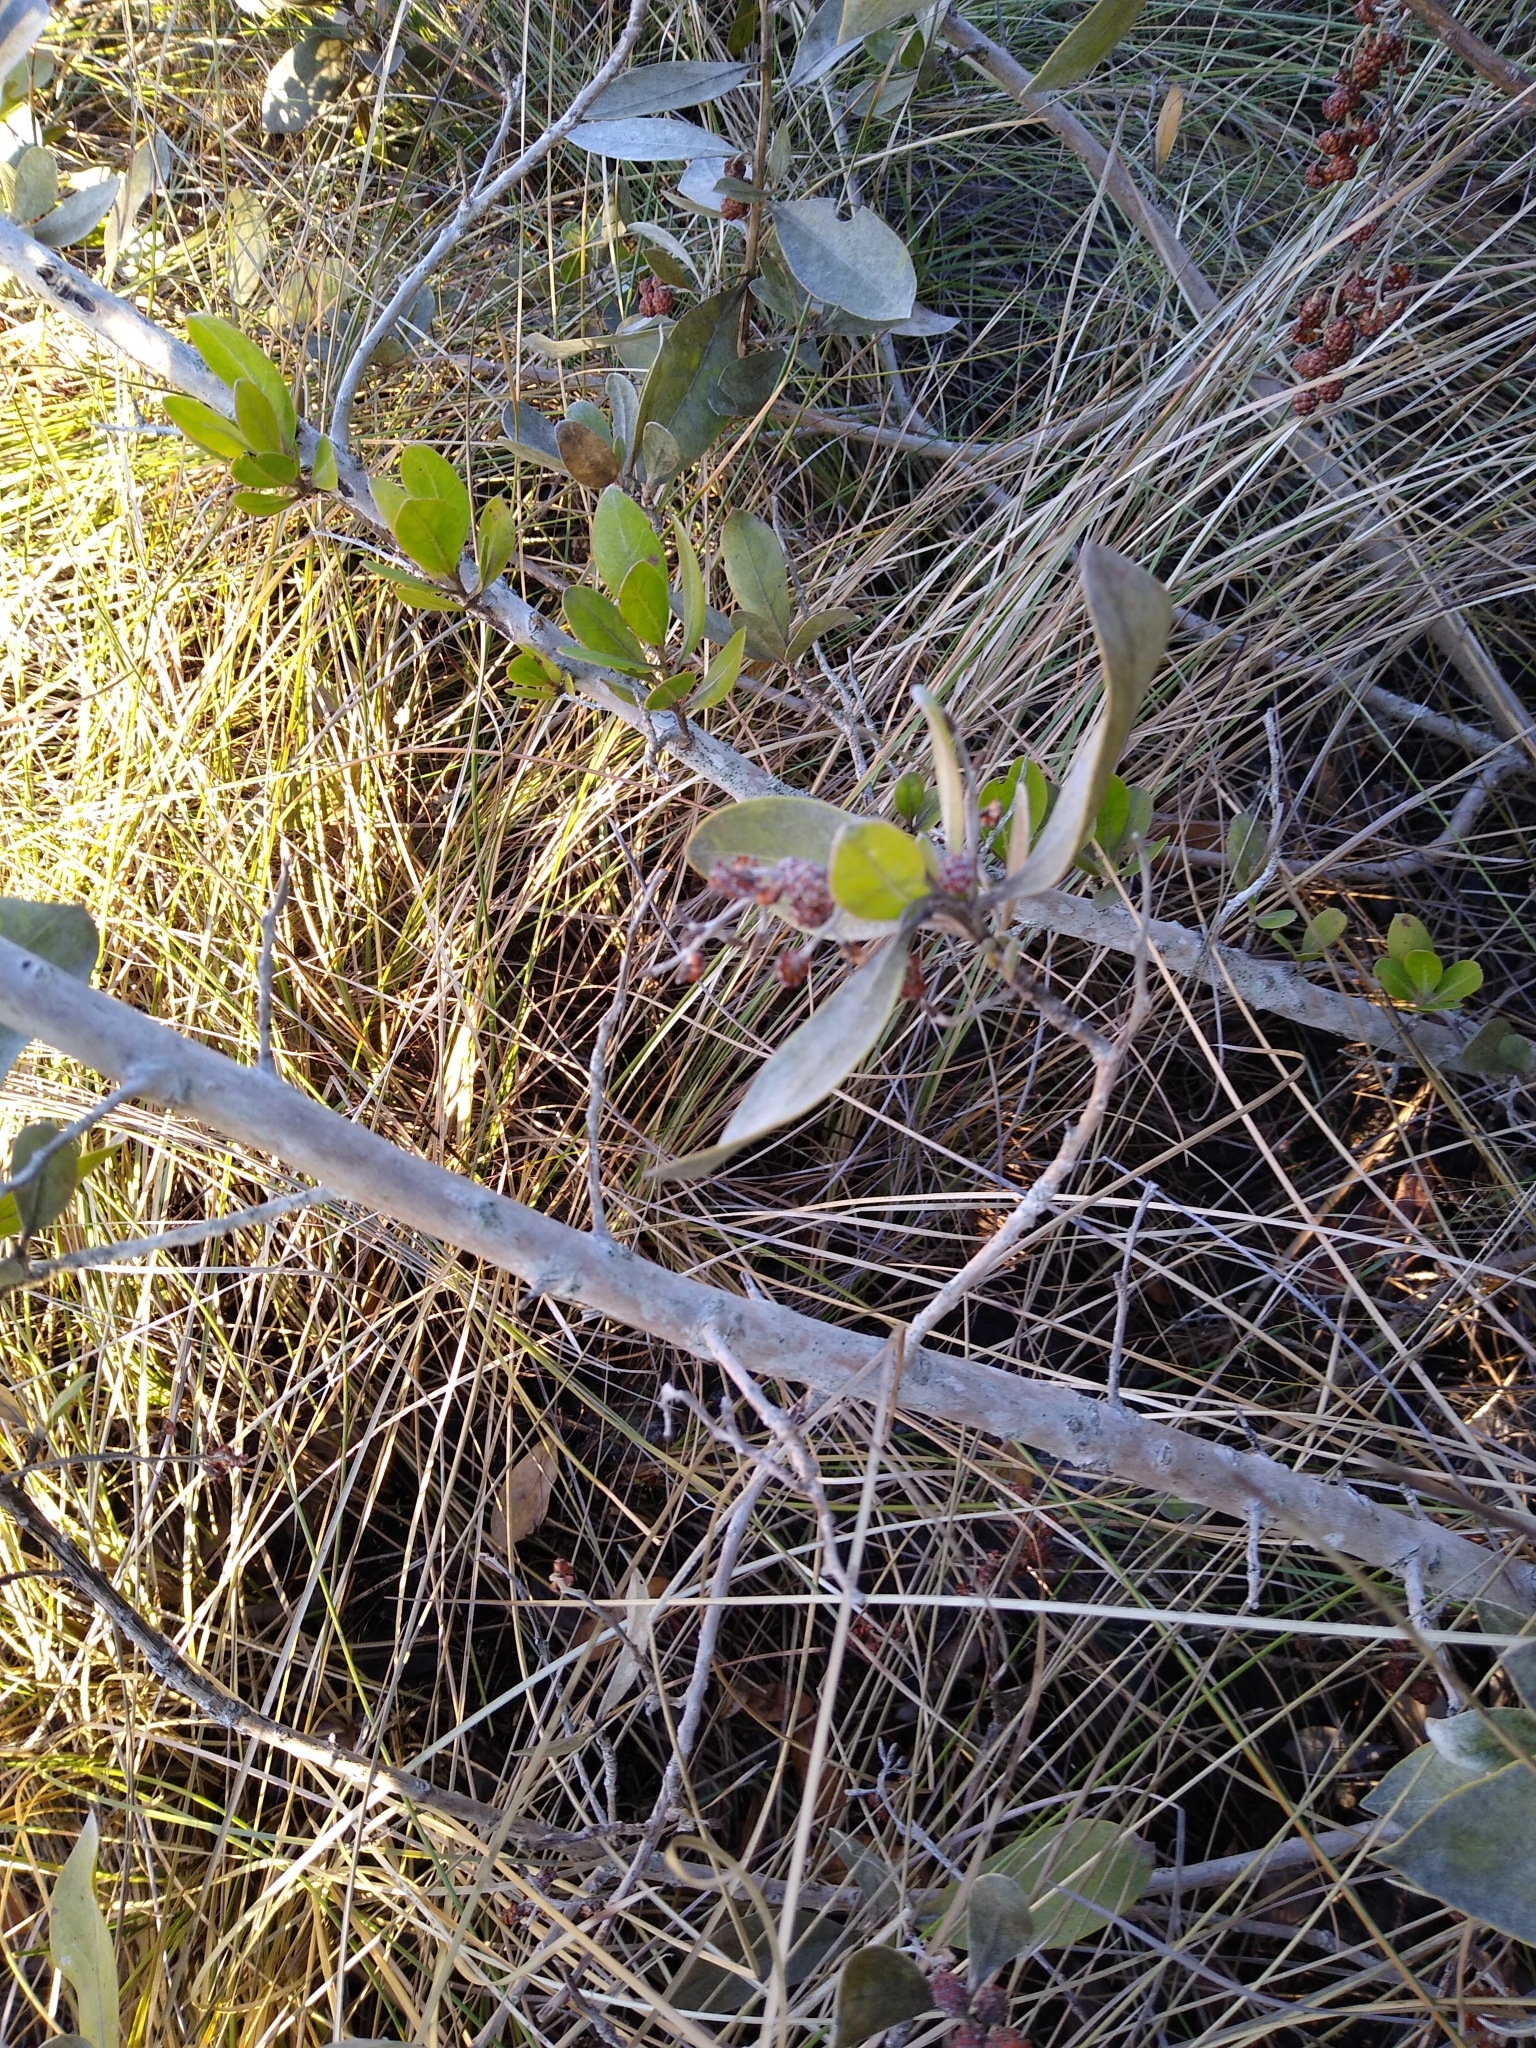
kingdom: Plantae
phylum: Tracheophyta
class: Magnoliopsida
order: Myrtales
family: Combretaceae
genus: Conocarpus
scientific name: Conocarpus erectus
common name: Button mangrove
